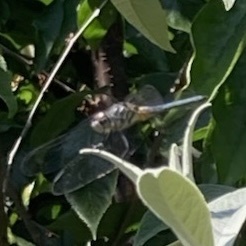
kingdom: Animalia
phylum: Arthropoda
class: Insecta
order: Odonata
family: Libellulidae
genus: Pachydiplax
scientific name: Pachydiplax longipennis
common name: Blue dasher
